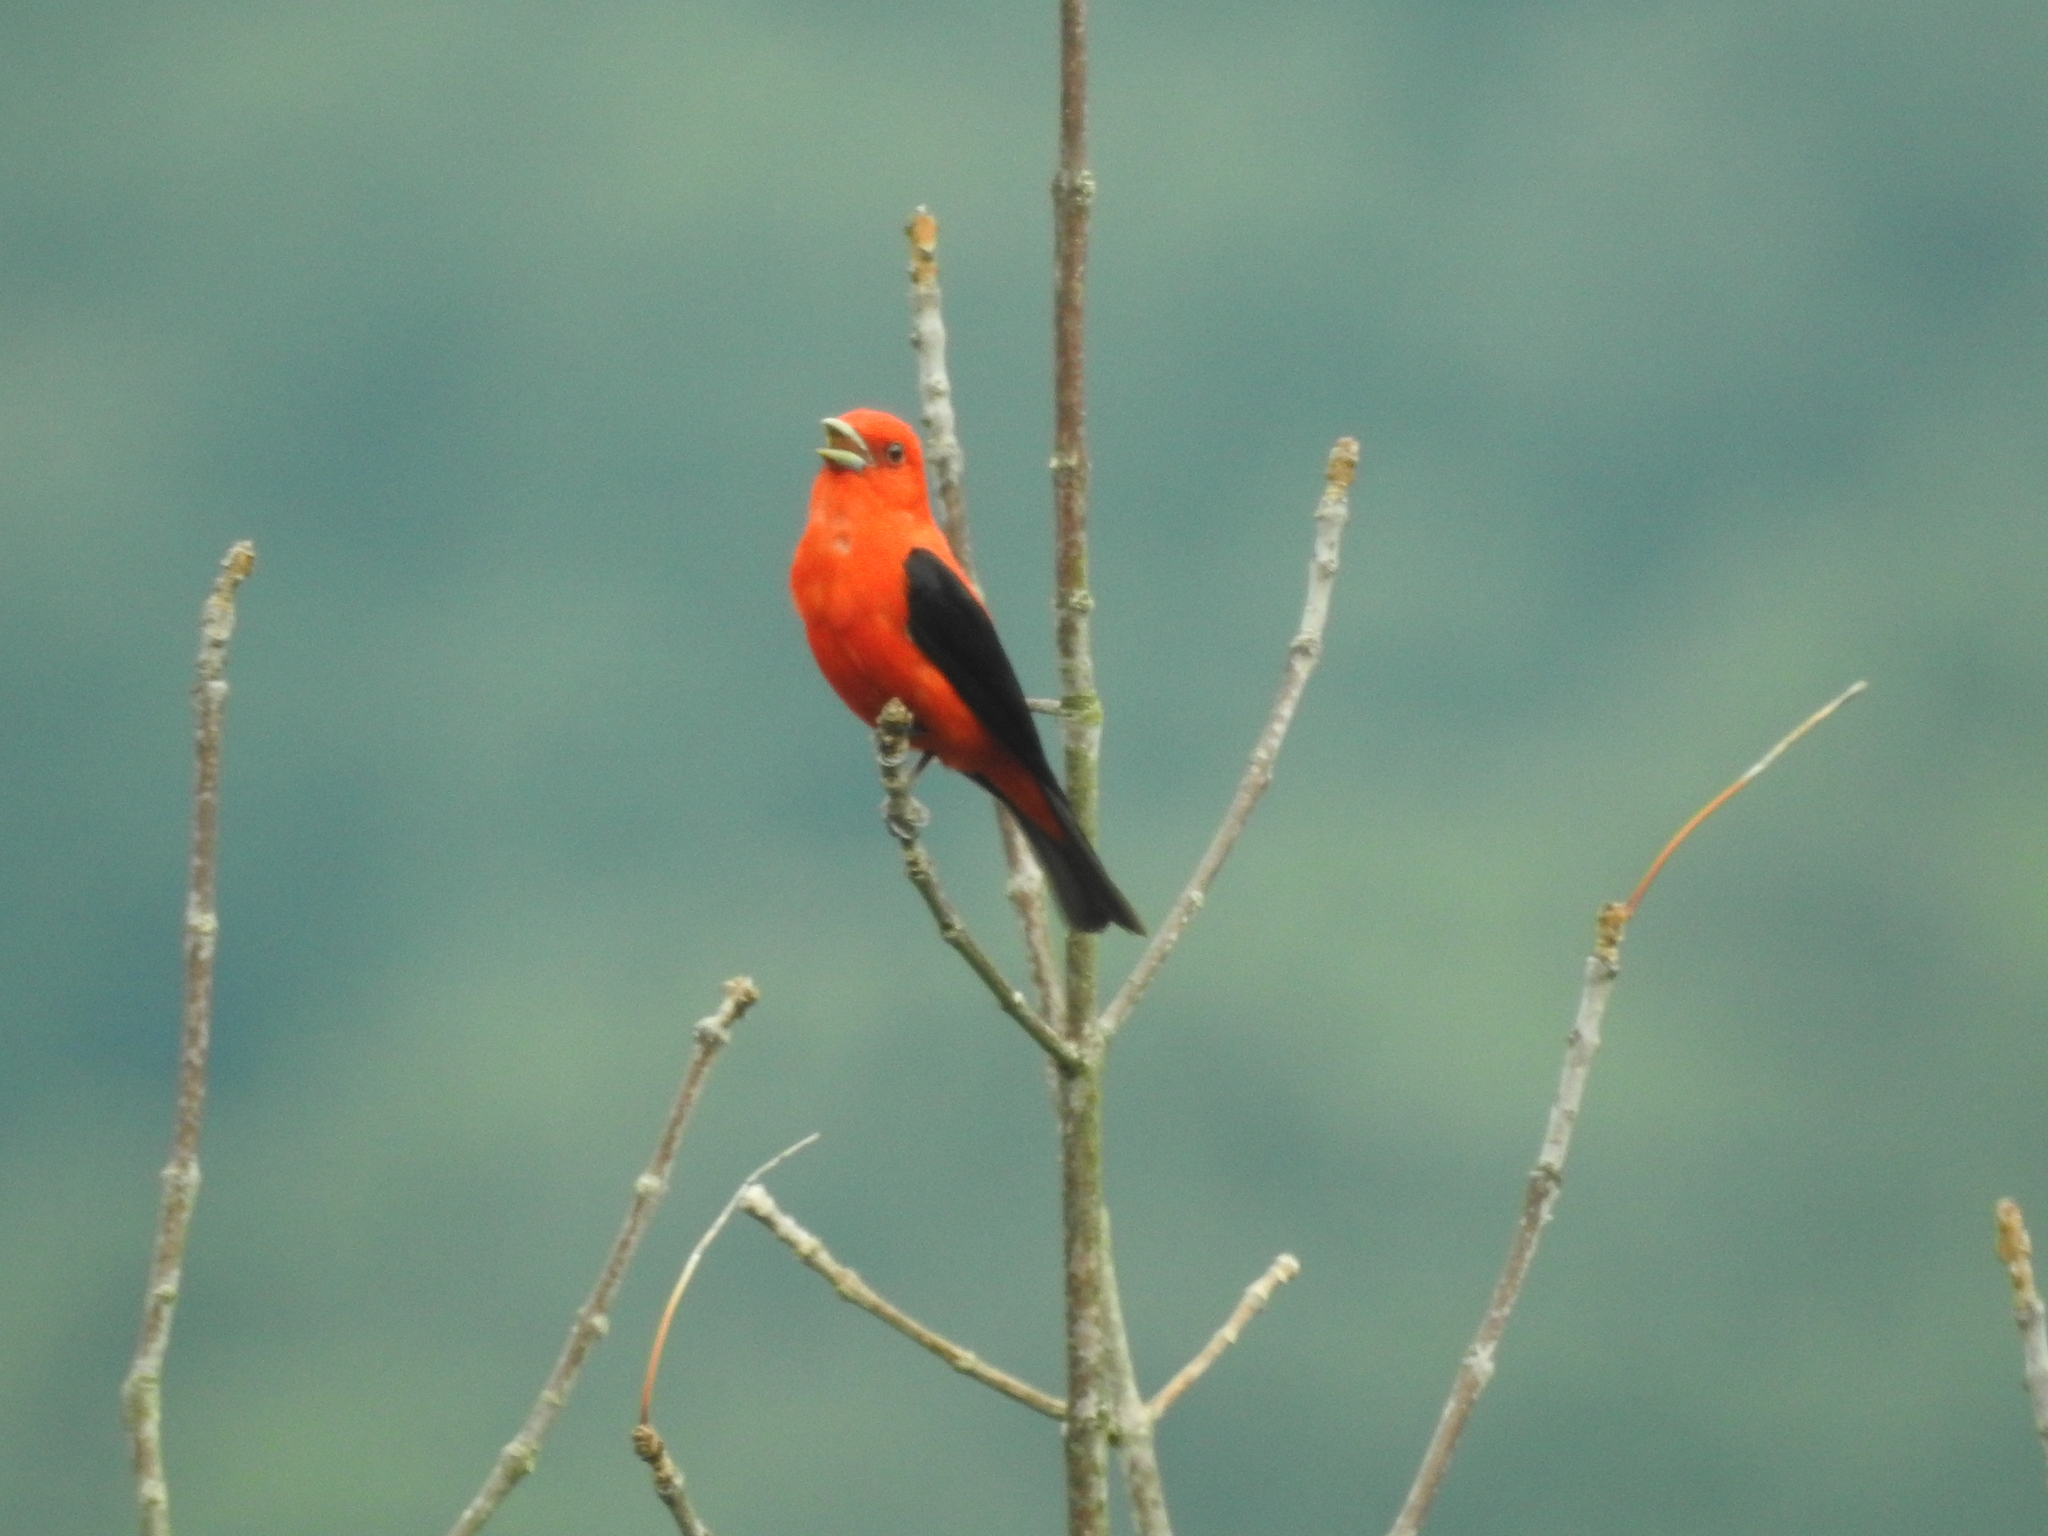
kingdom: Animalia
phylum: Chordata
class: Aves
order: Passeriformes
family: Cardinalidae
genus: Piranga
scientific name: Piranga olivacea
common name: Scarlet tanager
